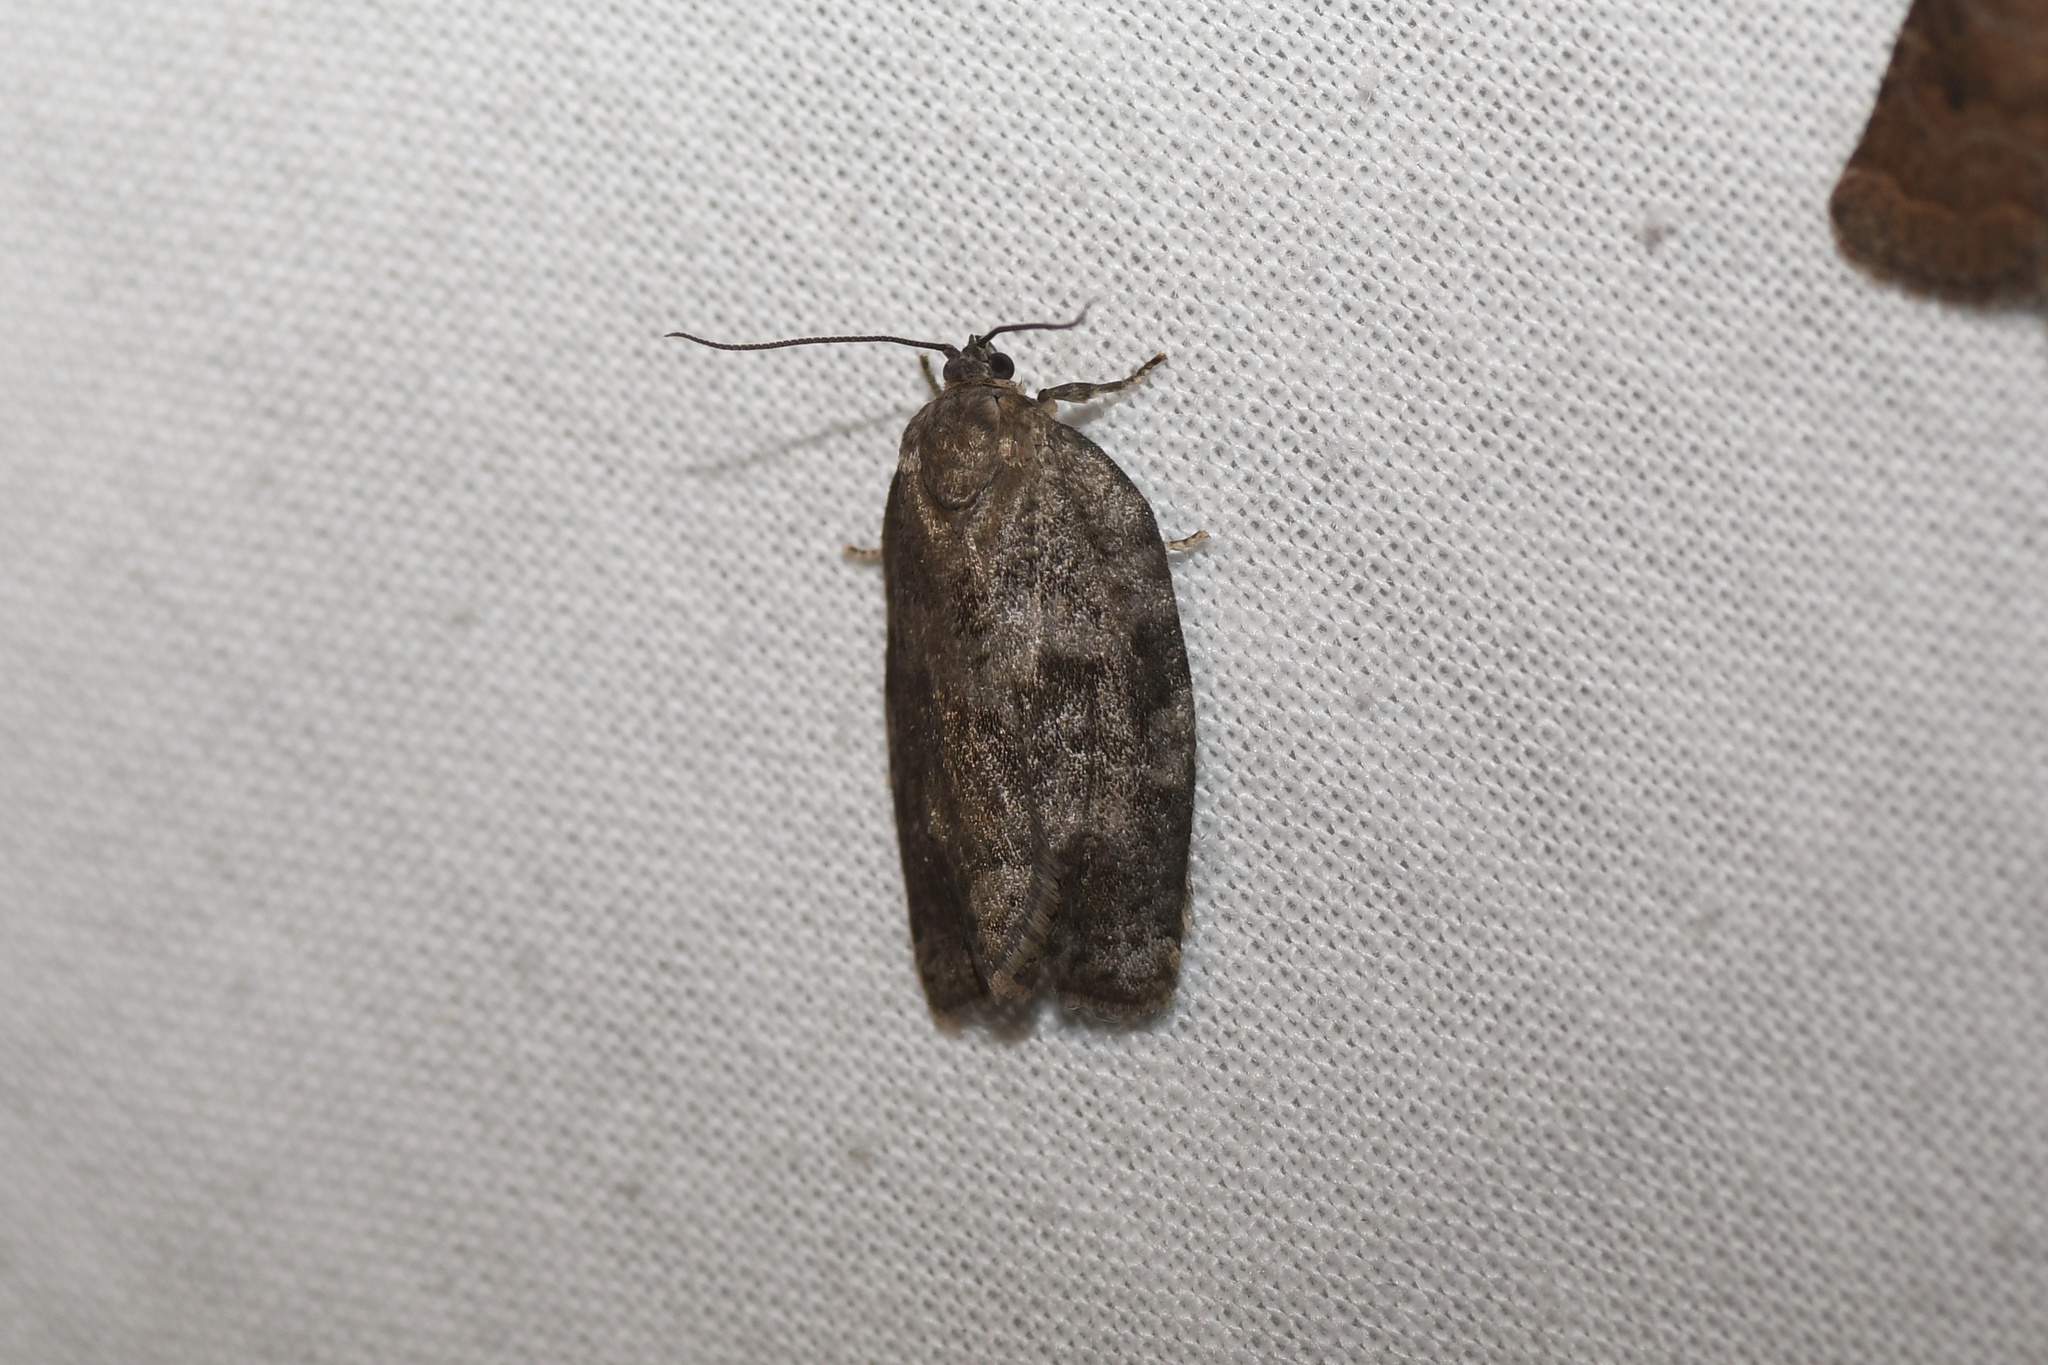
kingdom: Animalia
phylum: Arthropoda
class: Insecta
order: Lepidoptera
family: Tortricidae
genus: Choristoneura
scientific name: Choristoneura conflictana
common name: Large aspen tortrix
